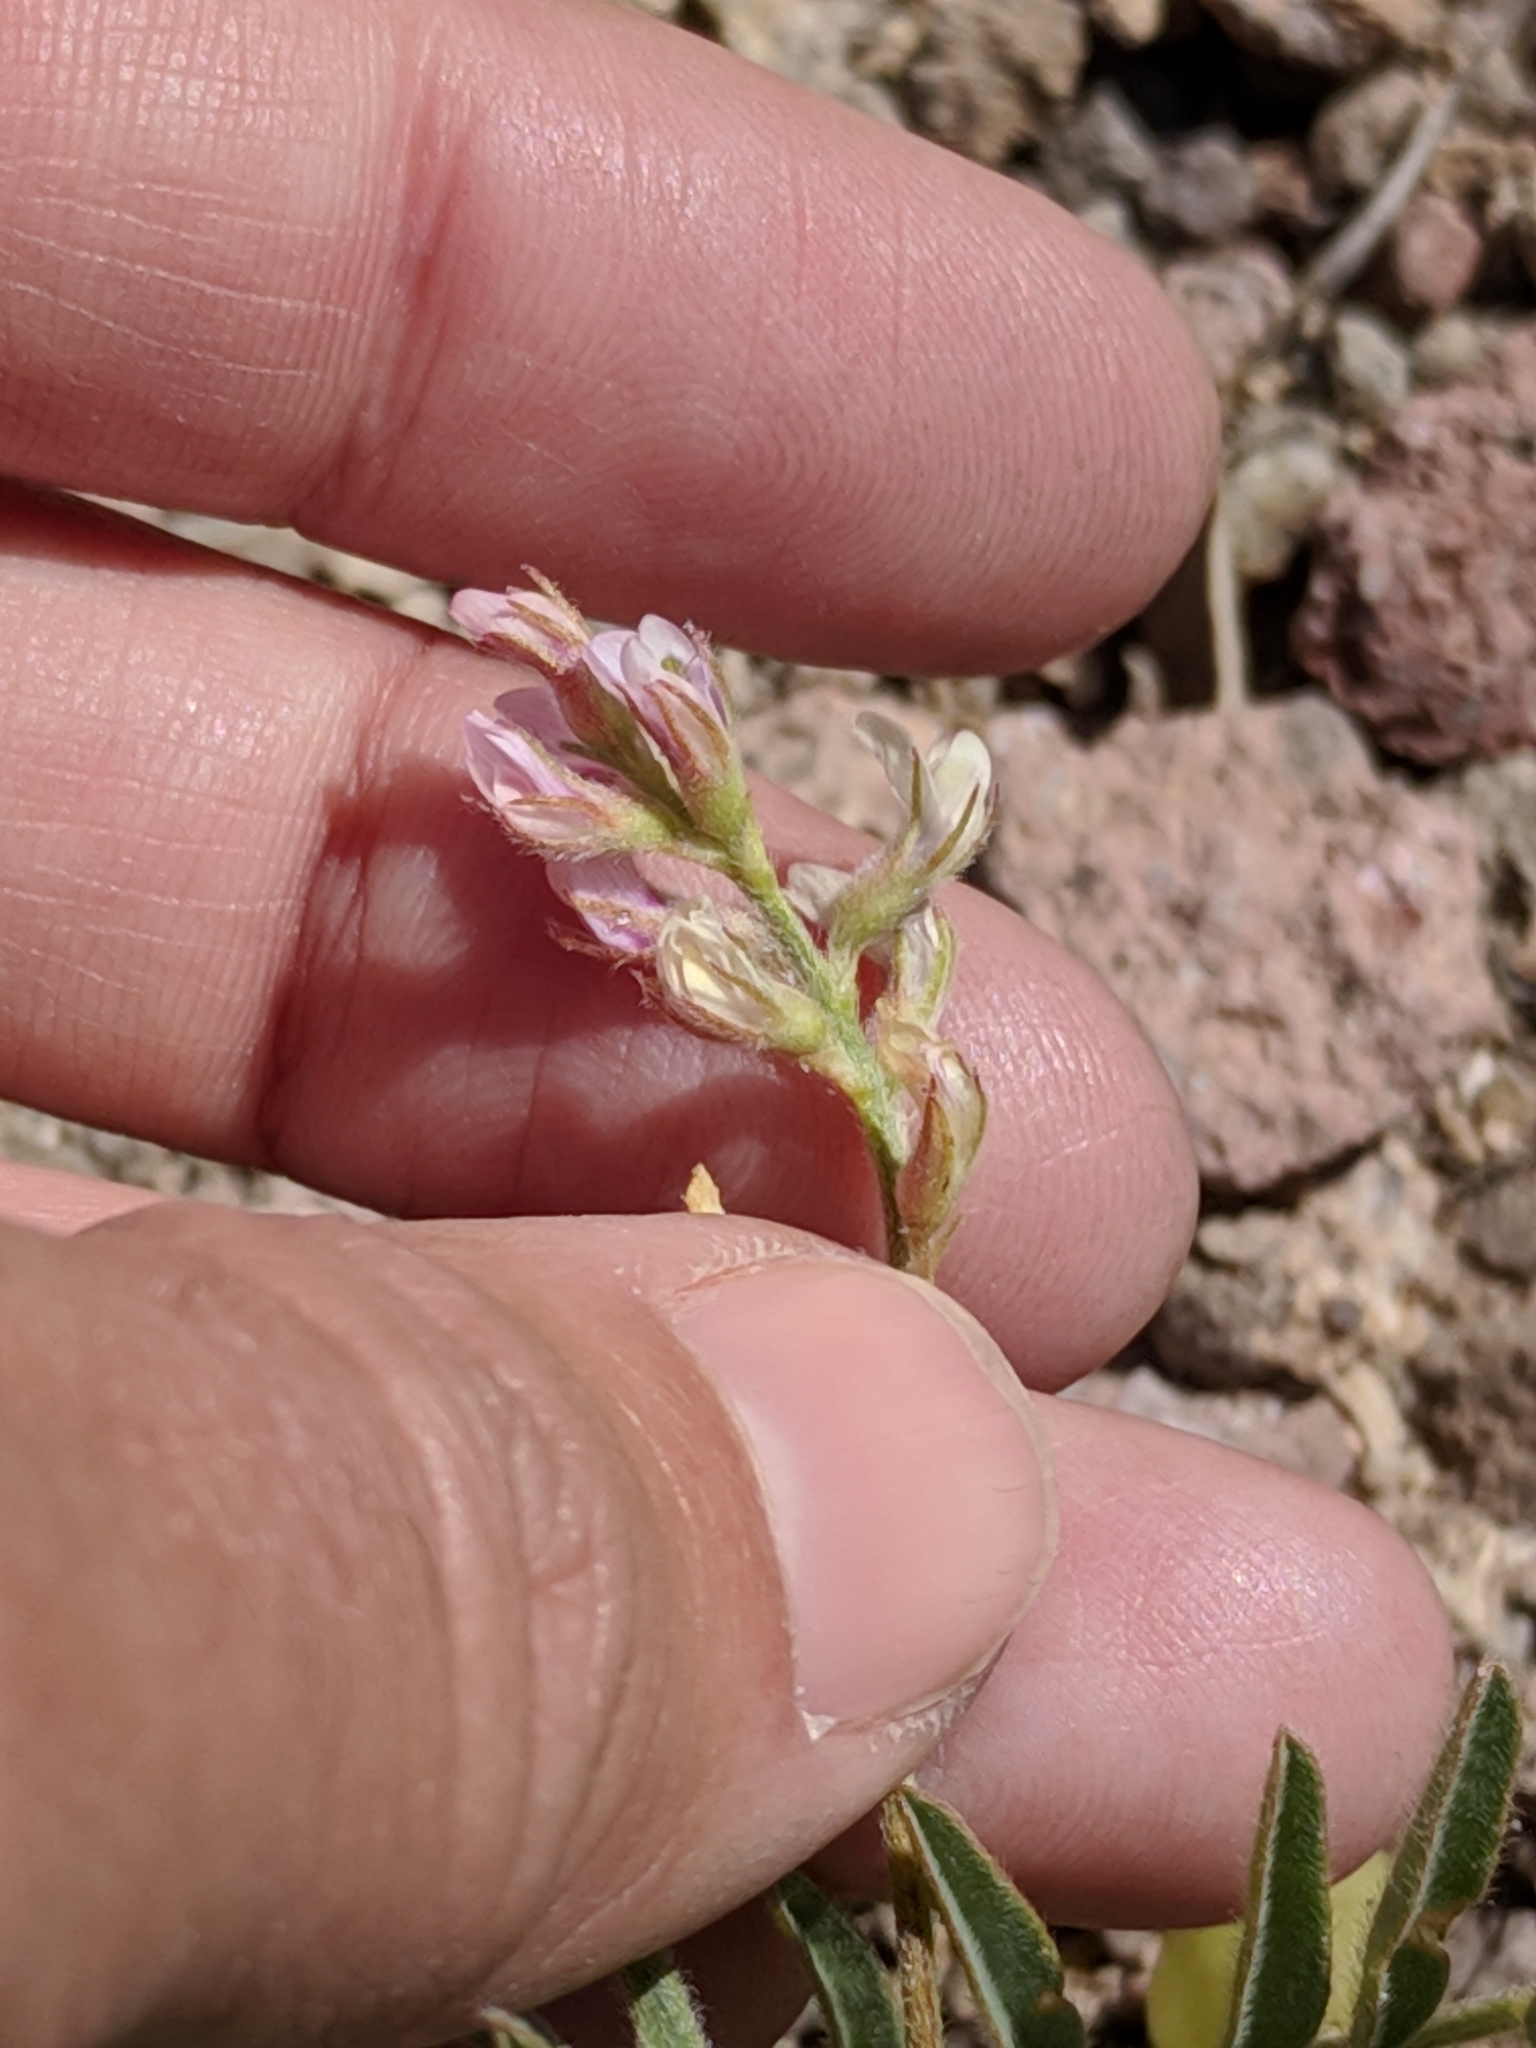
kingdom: Plantae
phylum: Tracheophyta
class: Magnoliopsida
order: Fabales
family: Fabaceae
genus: Astragalus
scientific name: Astragalus wootonii
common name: Wooton's milk-vetch
